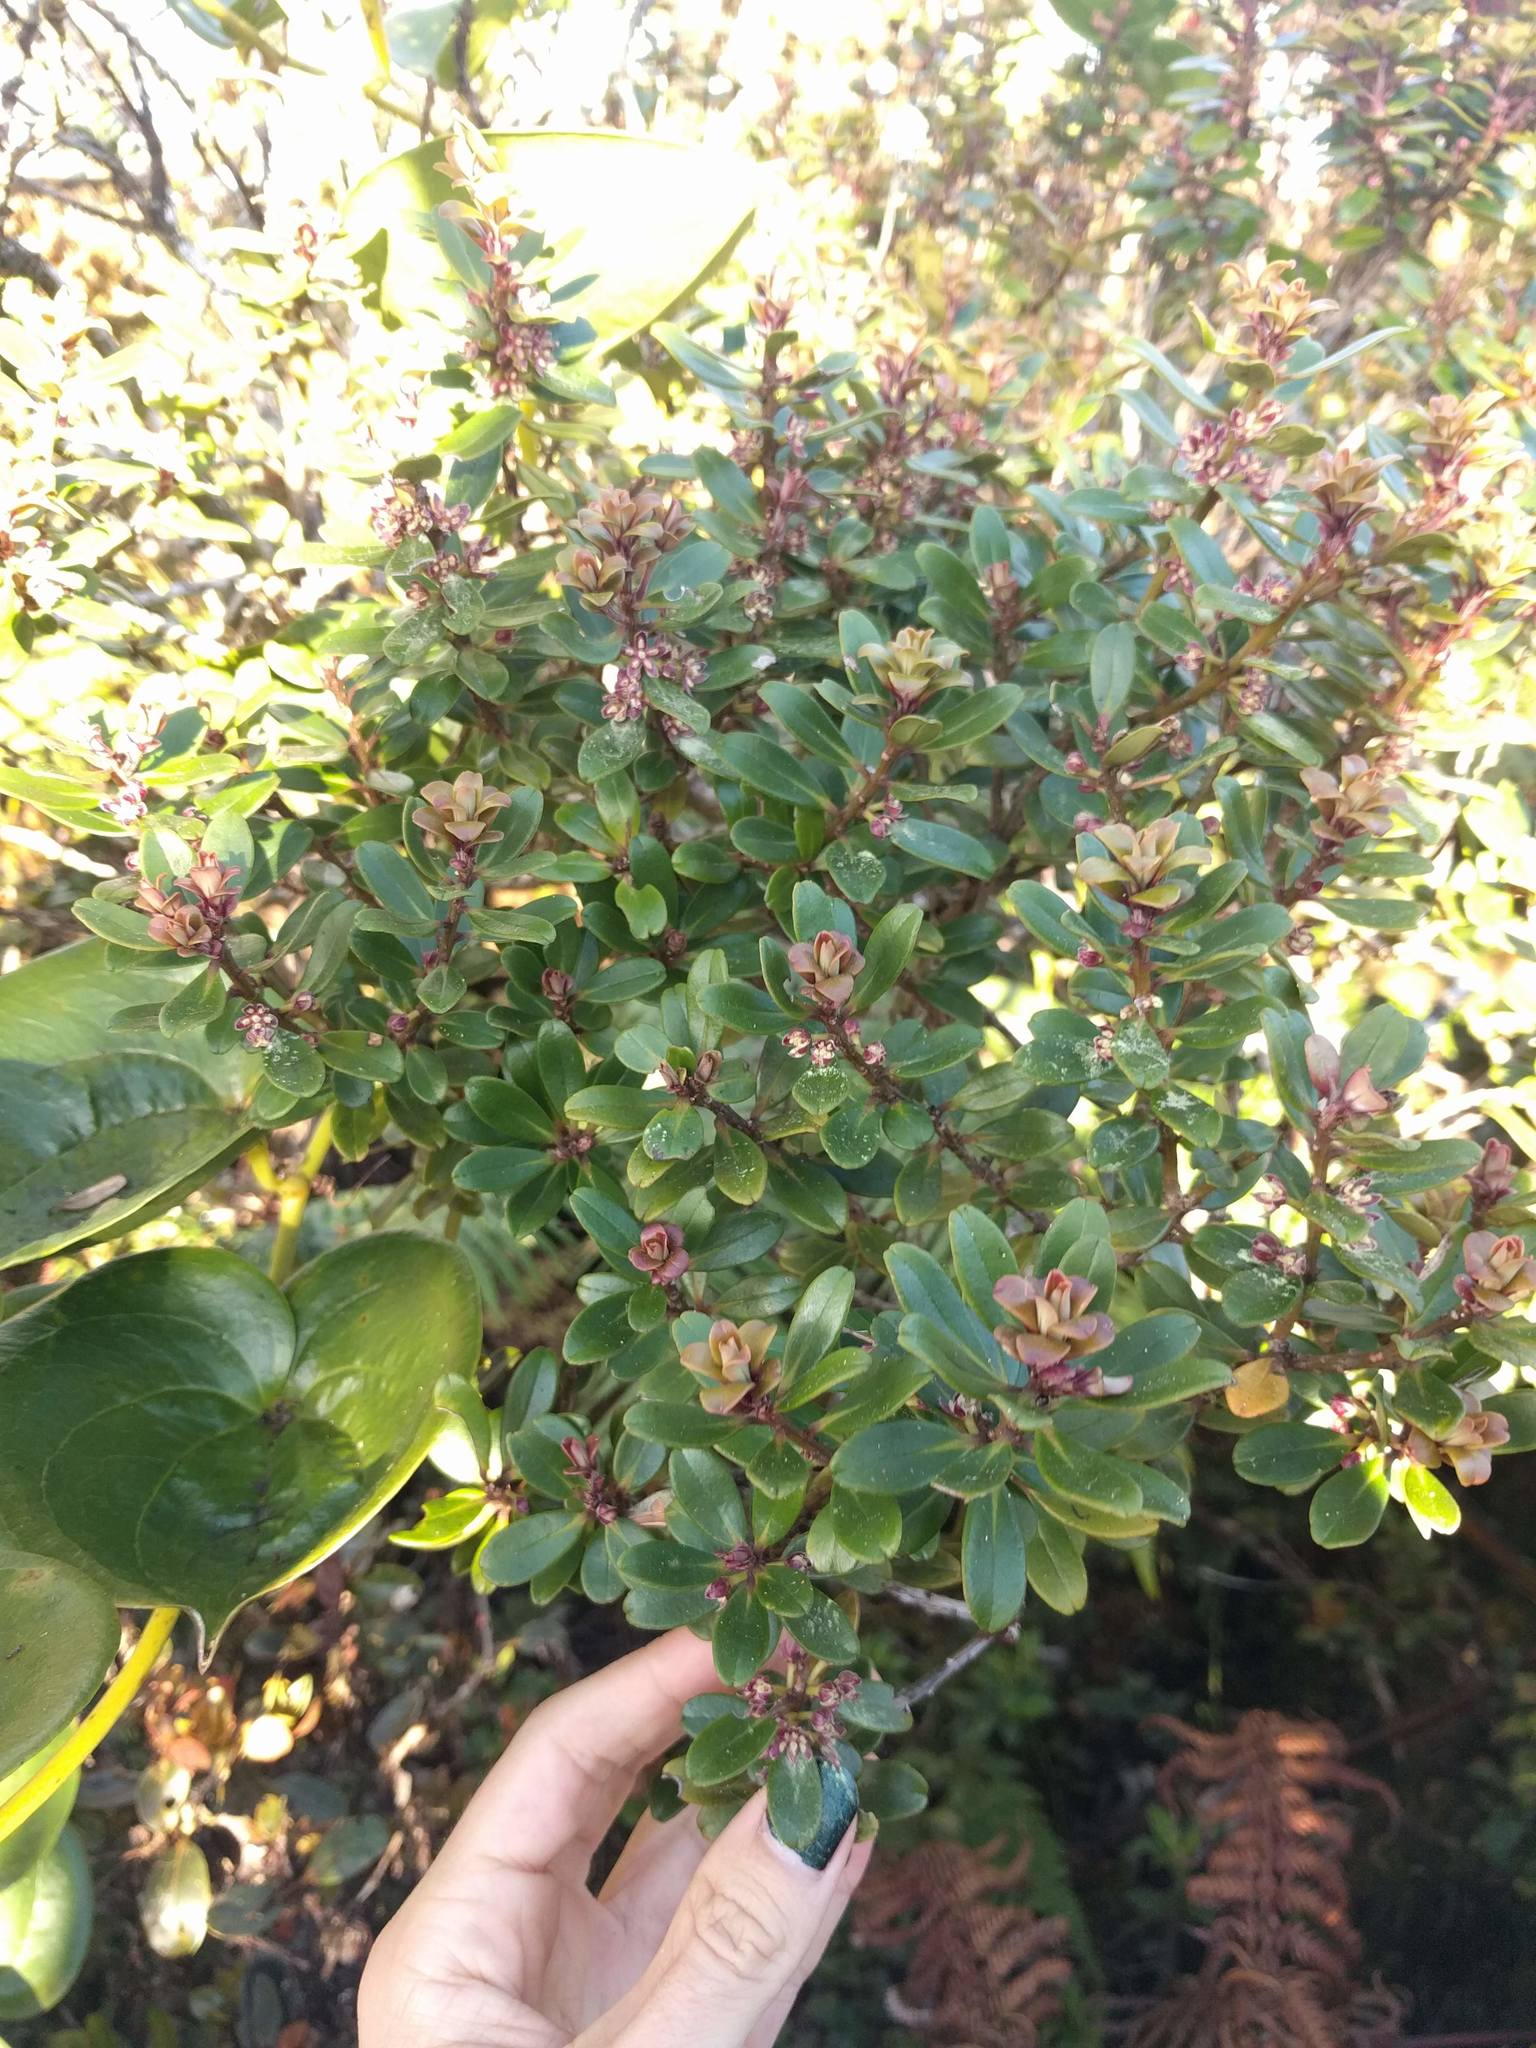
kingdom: Plantae
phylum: Tracheophyta
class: Magnoliopsida
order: Ericales
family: Primulaceae
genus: Myrsine
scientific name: Myrsine sandwicensis
